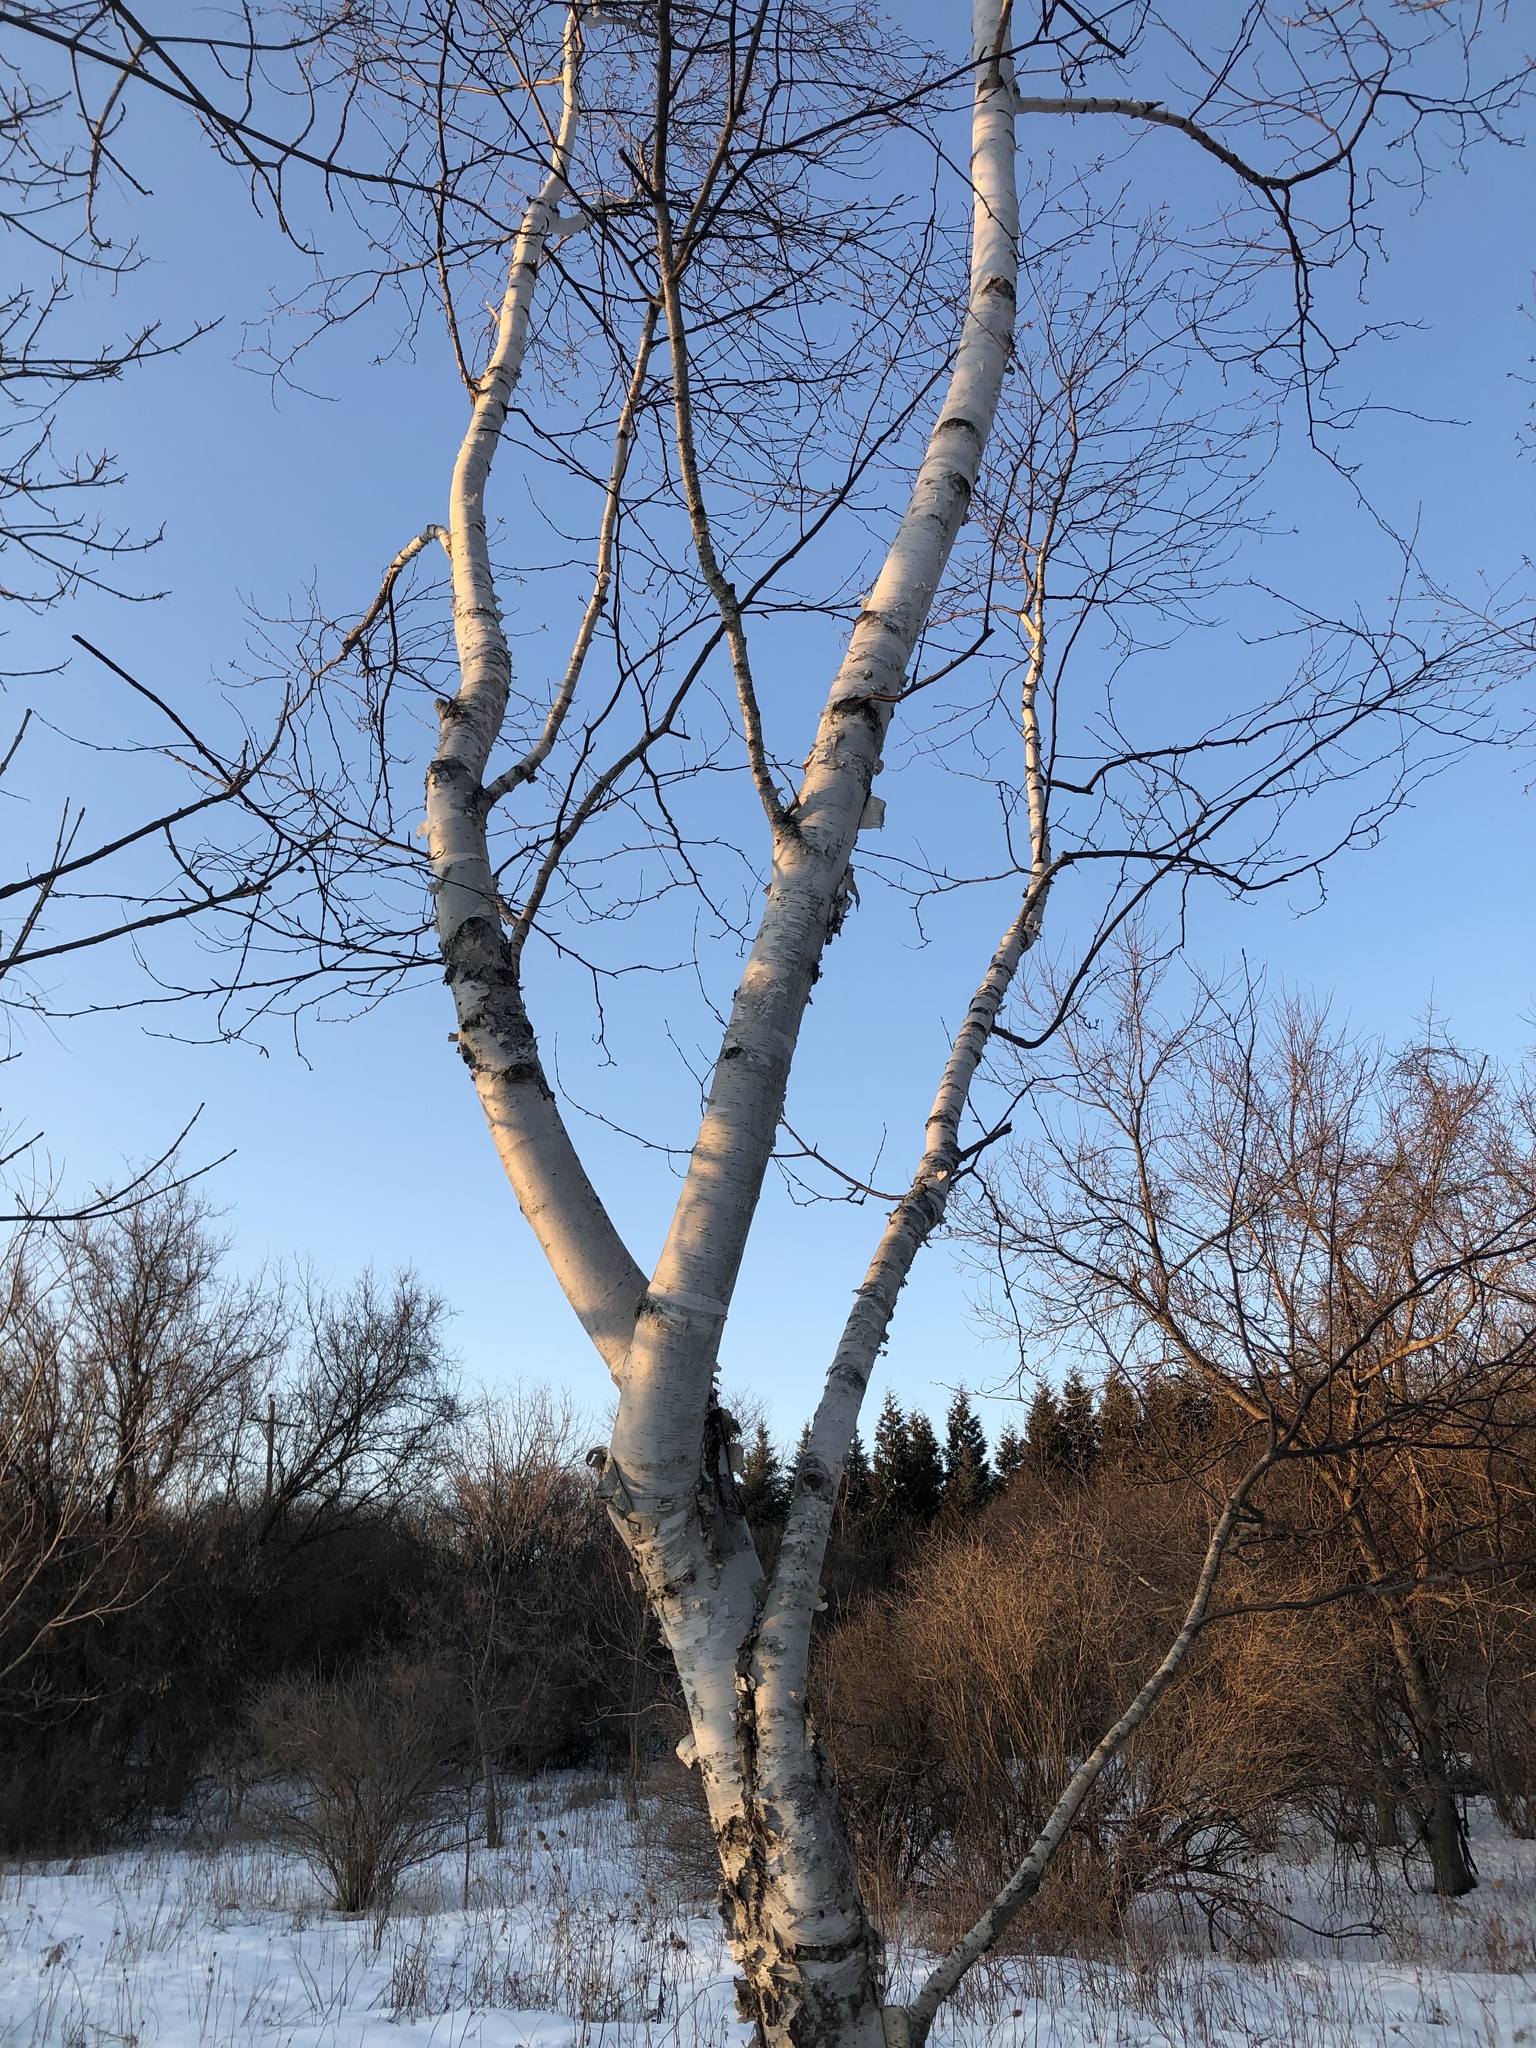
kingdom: Plantae
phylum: Tracheophyta
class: Magnoliopsida
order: Fagales
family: Betulaceae
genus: Betula
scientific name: Betula papyrifera
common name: Paper birch
